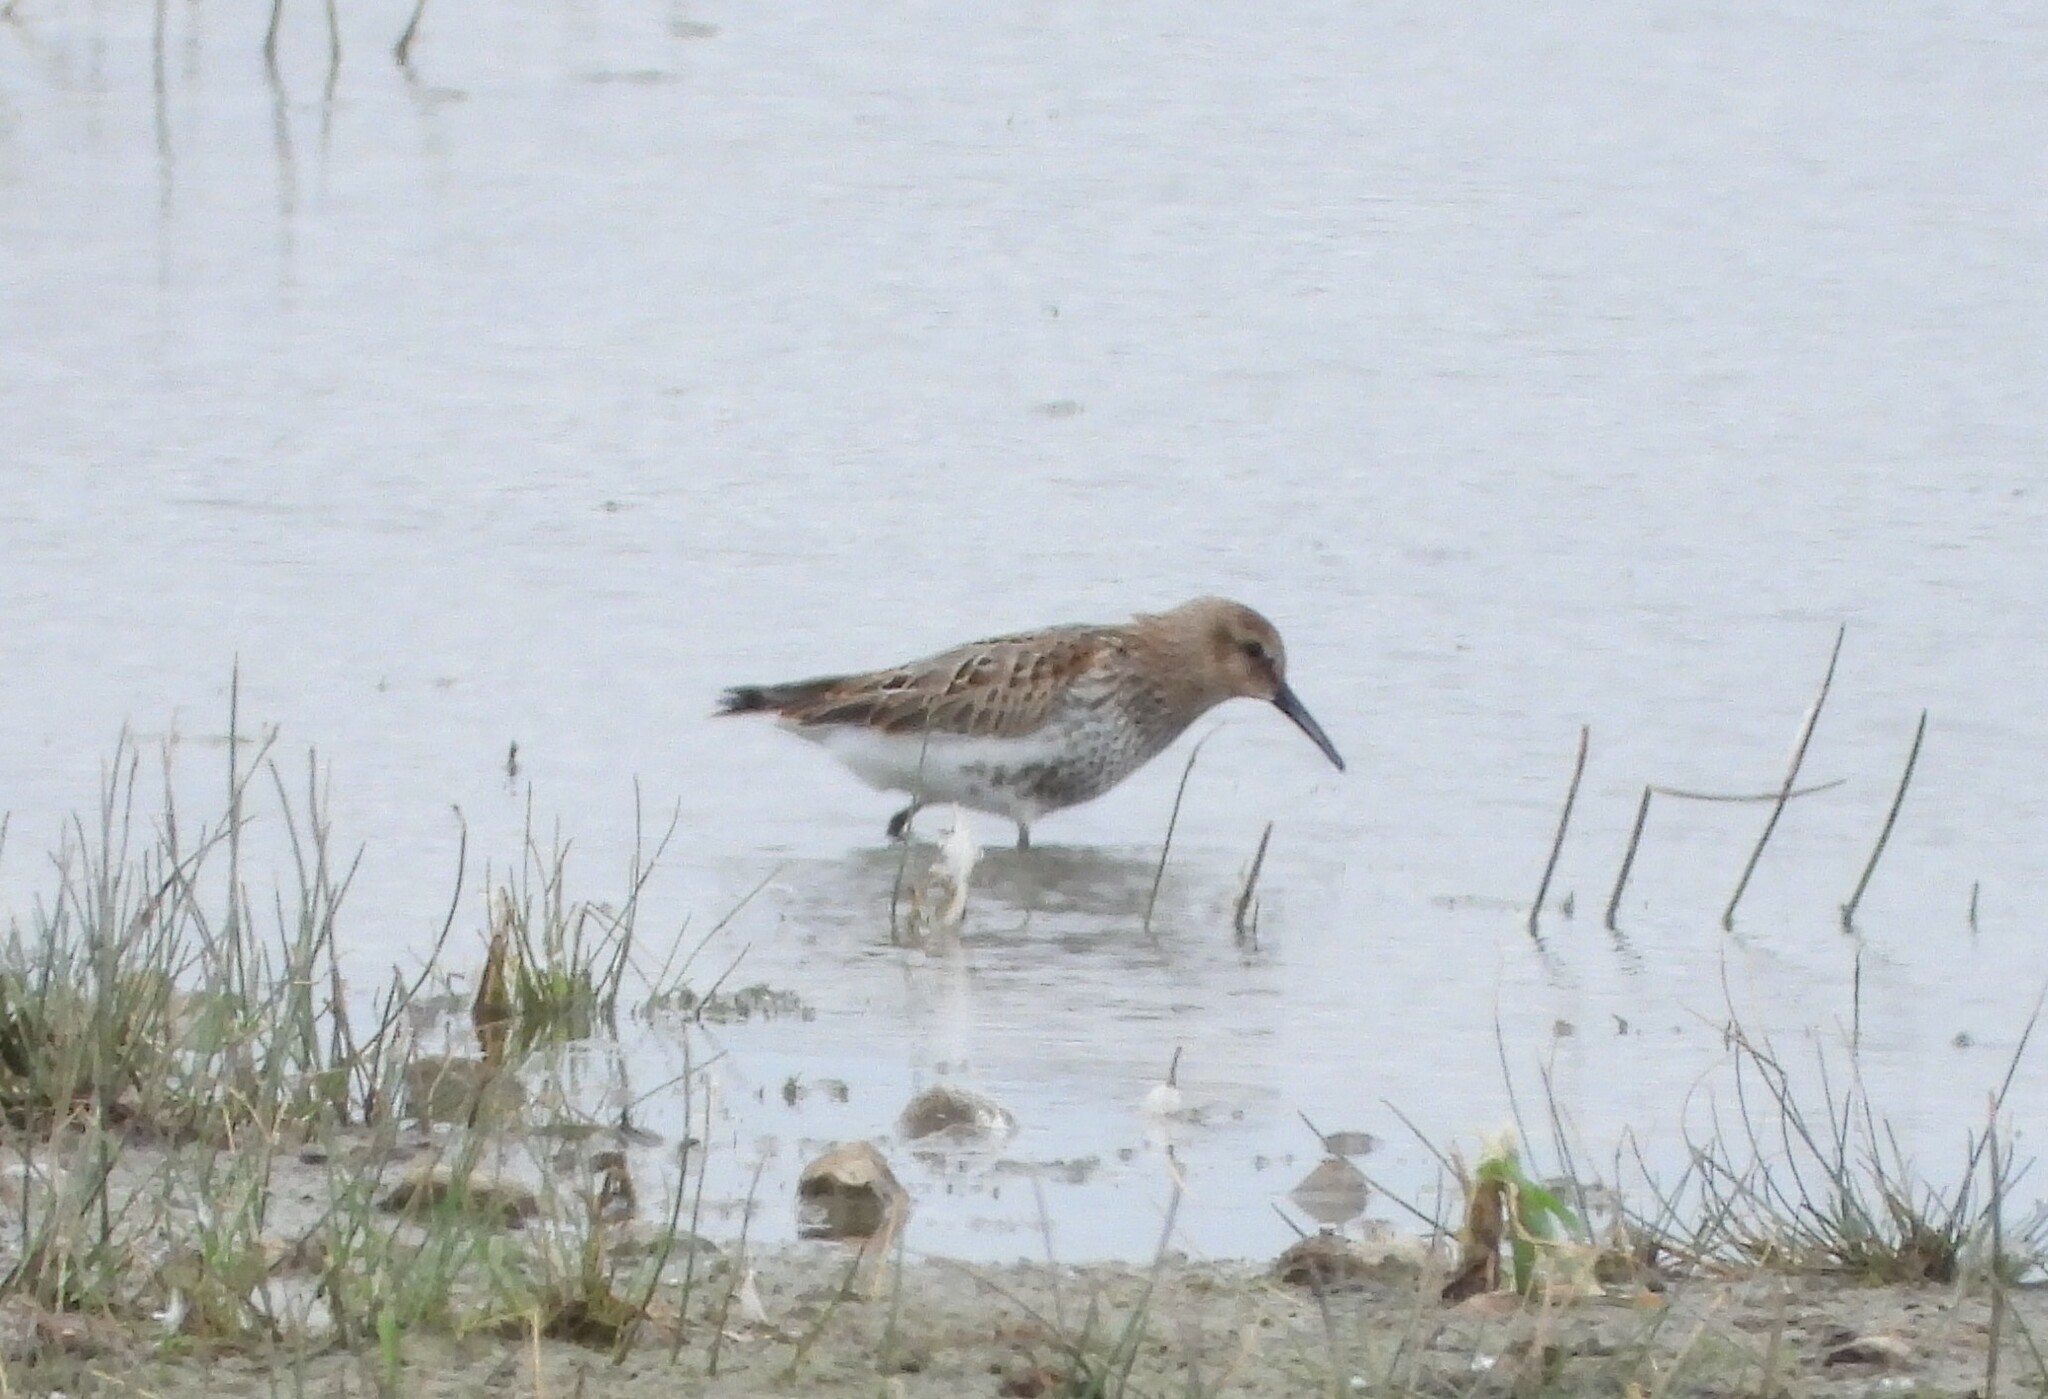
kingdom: Animalia
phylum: Chordata
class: Aves
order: Charadriiformes
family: Scolopacidae
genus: Calidris
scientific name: Calidris alpina
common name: Dunlin
